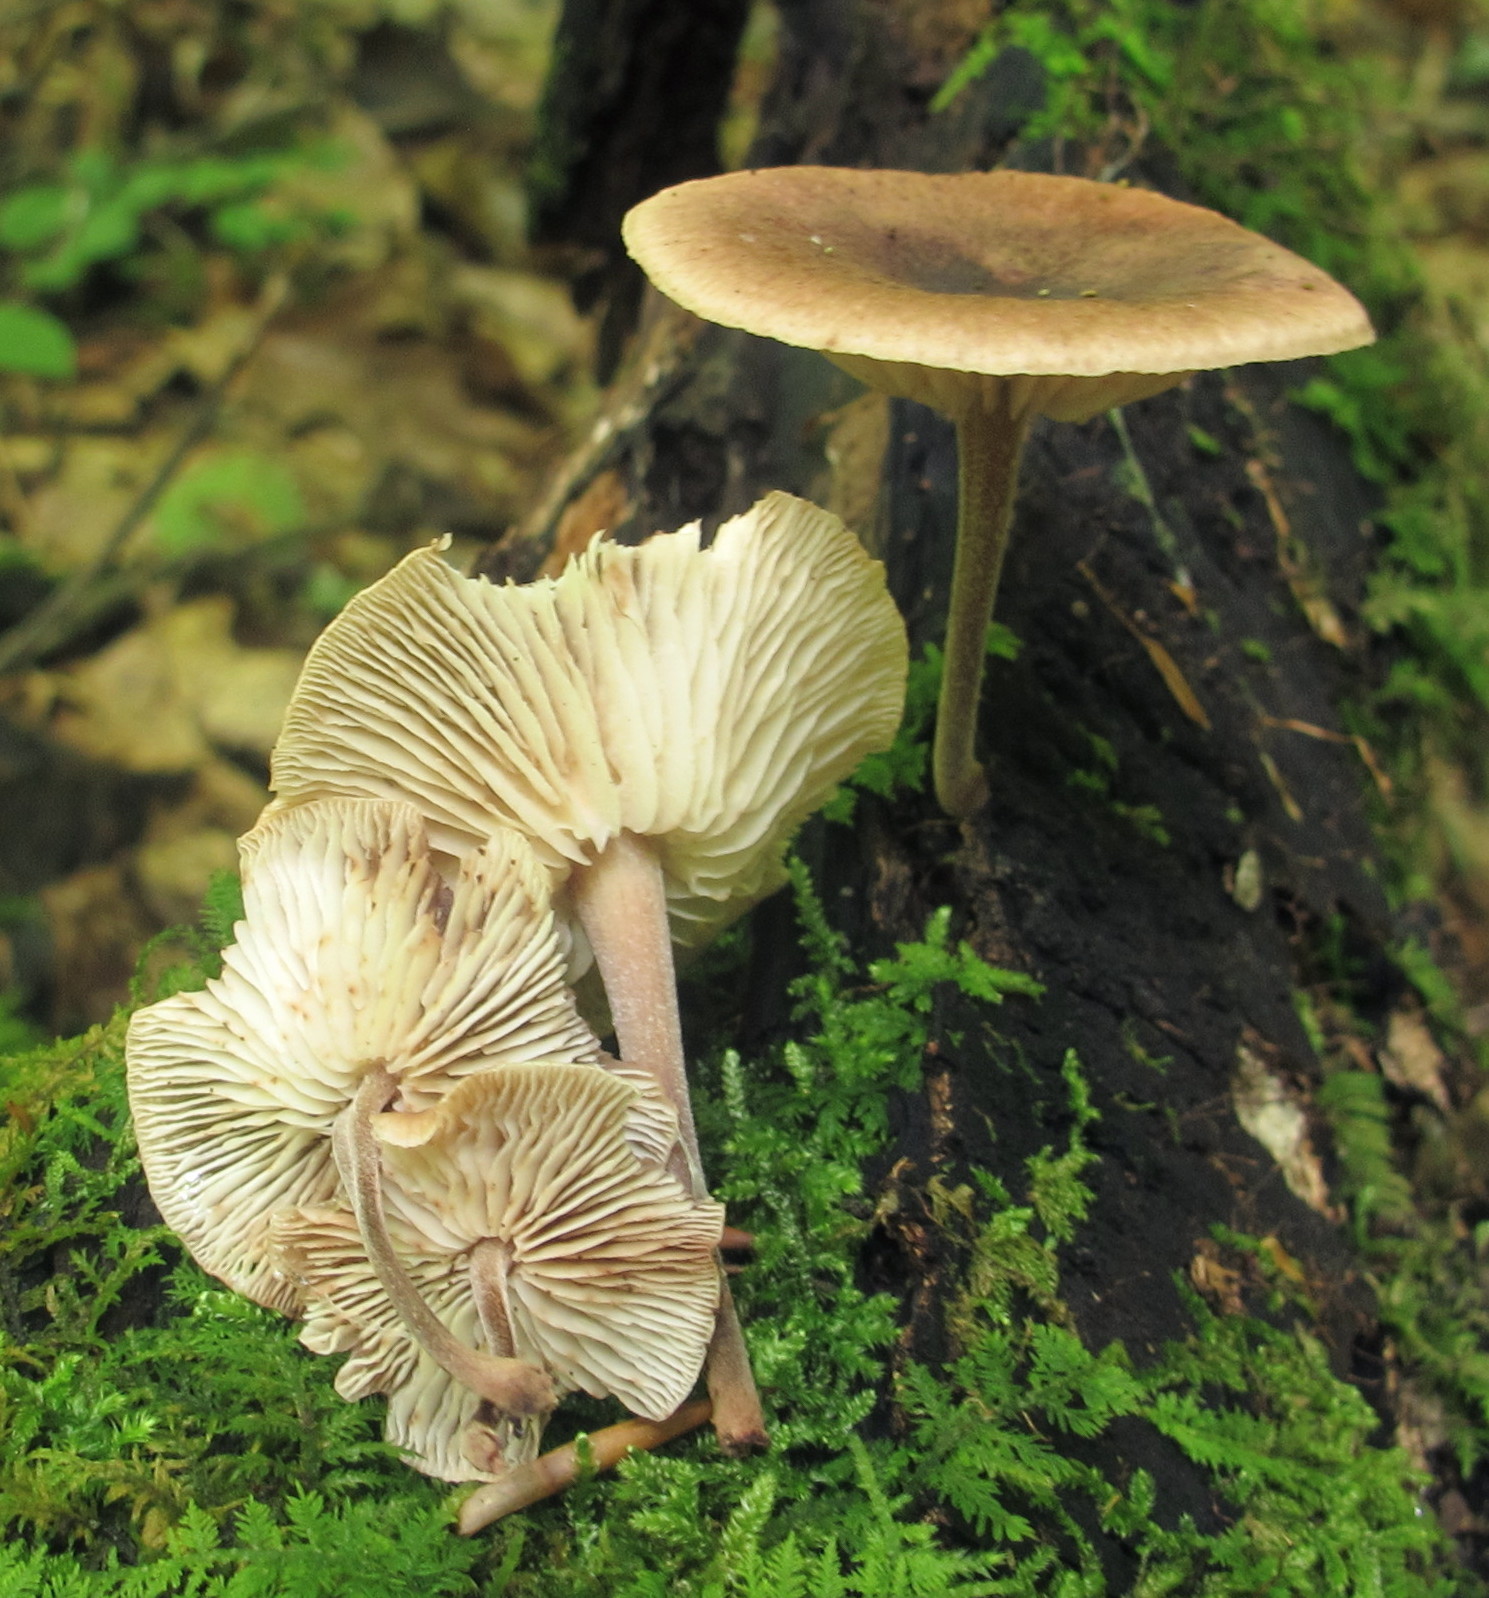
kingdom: Fungi
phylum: Basidiomycota
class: Agaricomycetes
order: Agaricales
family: Omphalotaceae
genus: Collybiopsis
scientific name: Collybiopsis dichroa
